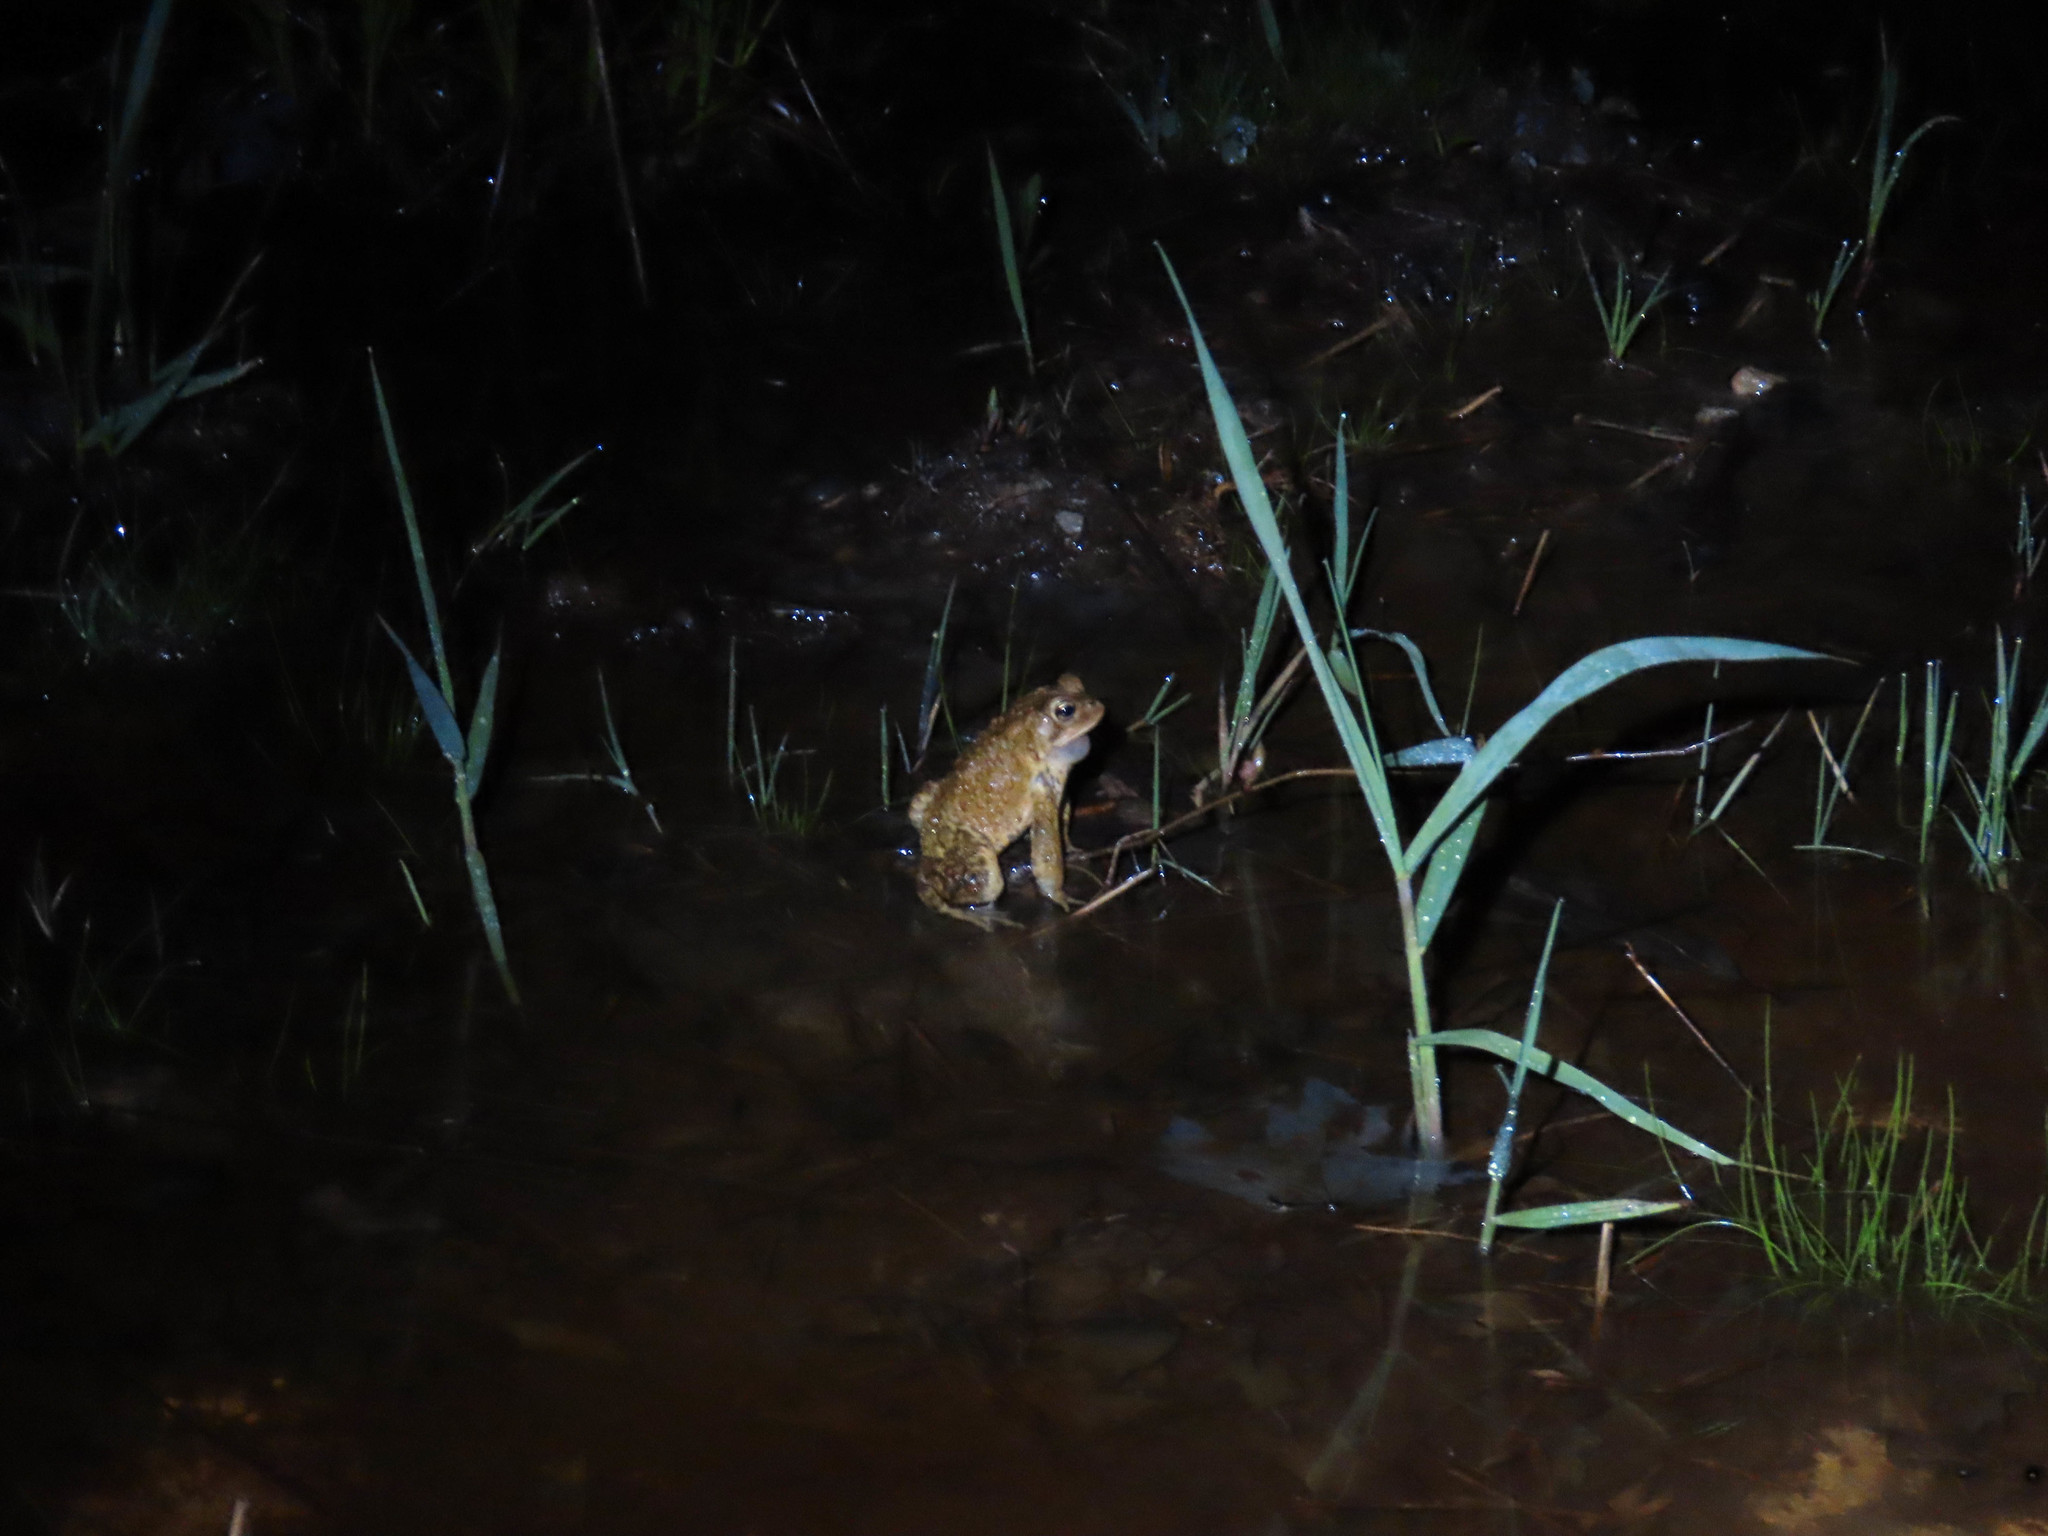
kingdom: Animalia
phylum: Chordata
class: Amphibia
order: Anura
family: Bufonidae
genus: Anaxyrus
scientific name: Anaxyrus americanus
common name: American toad
